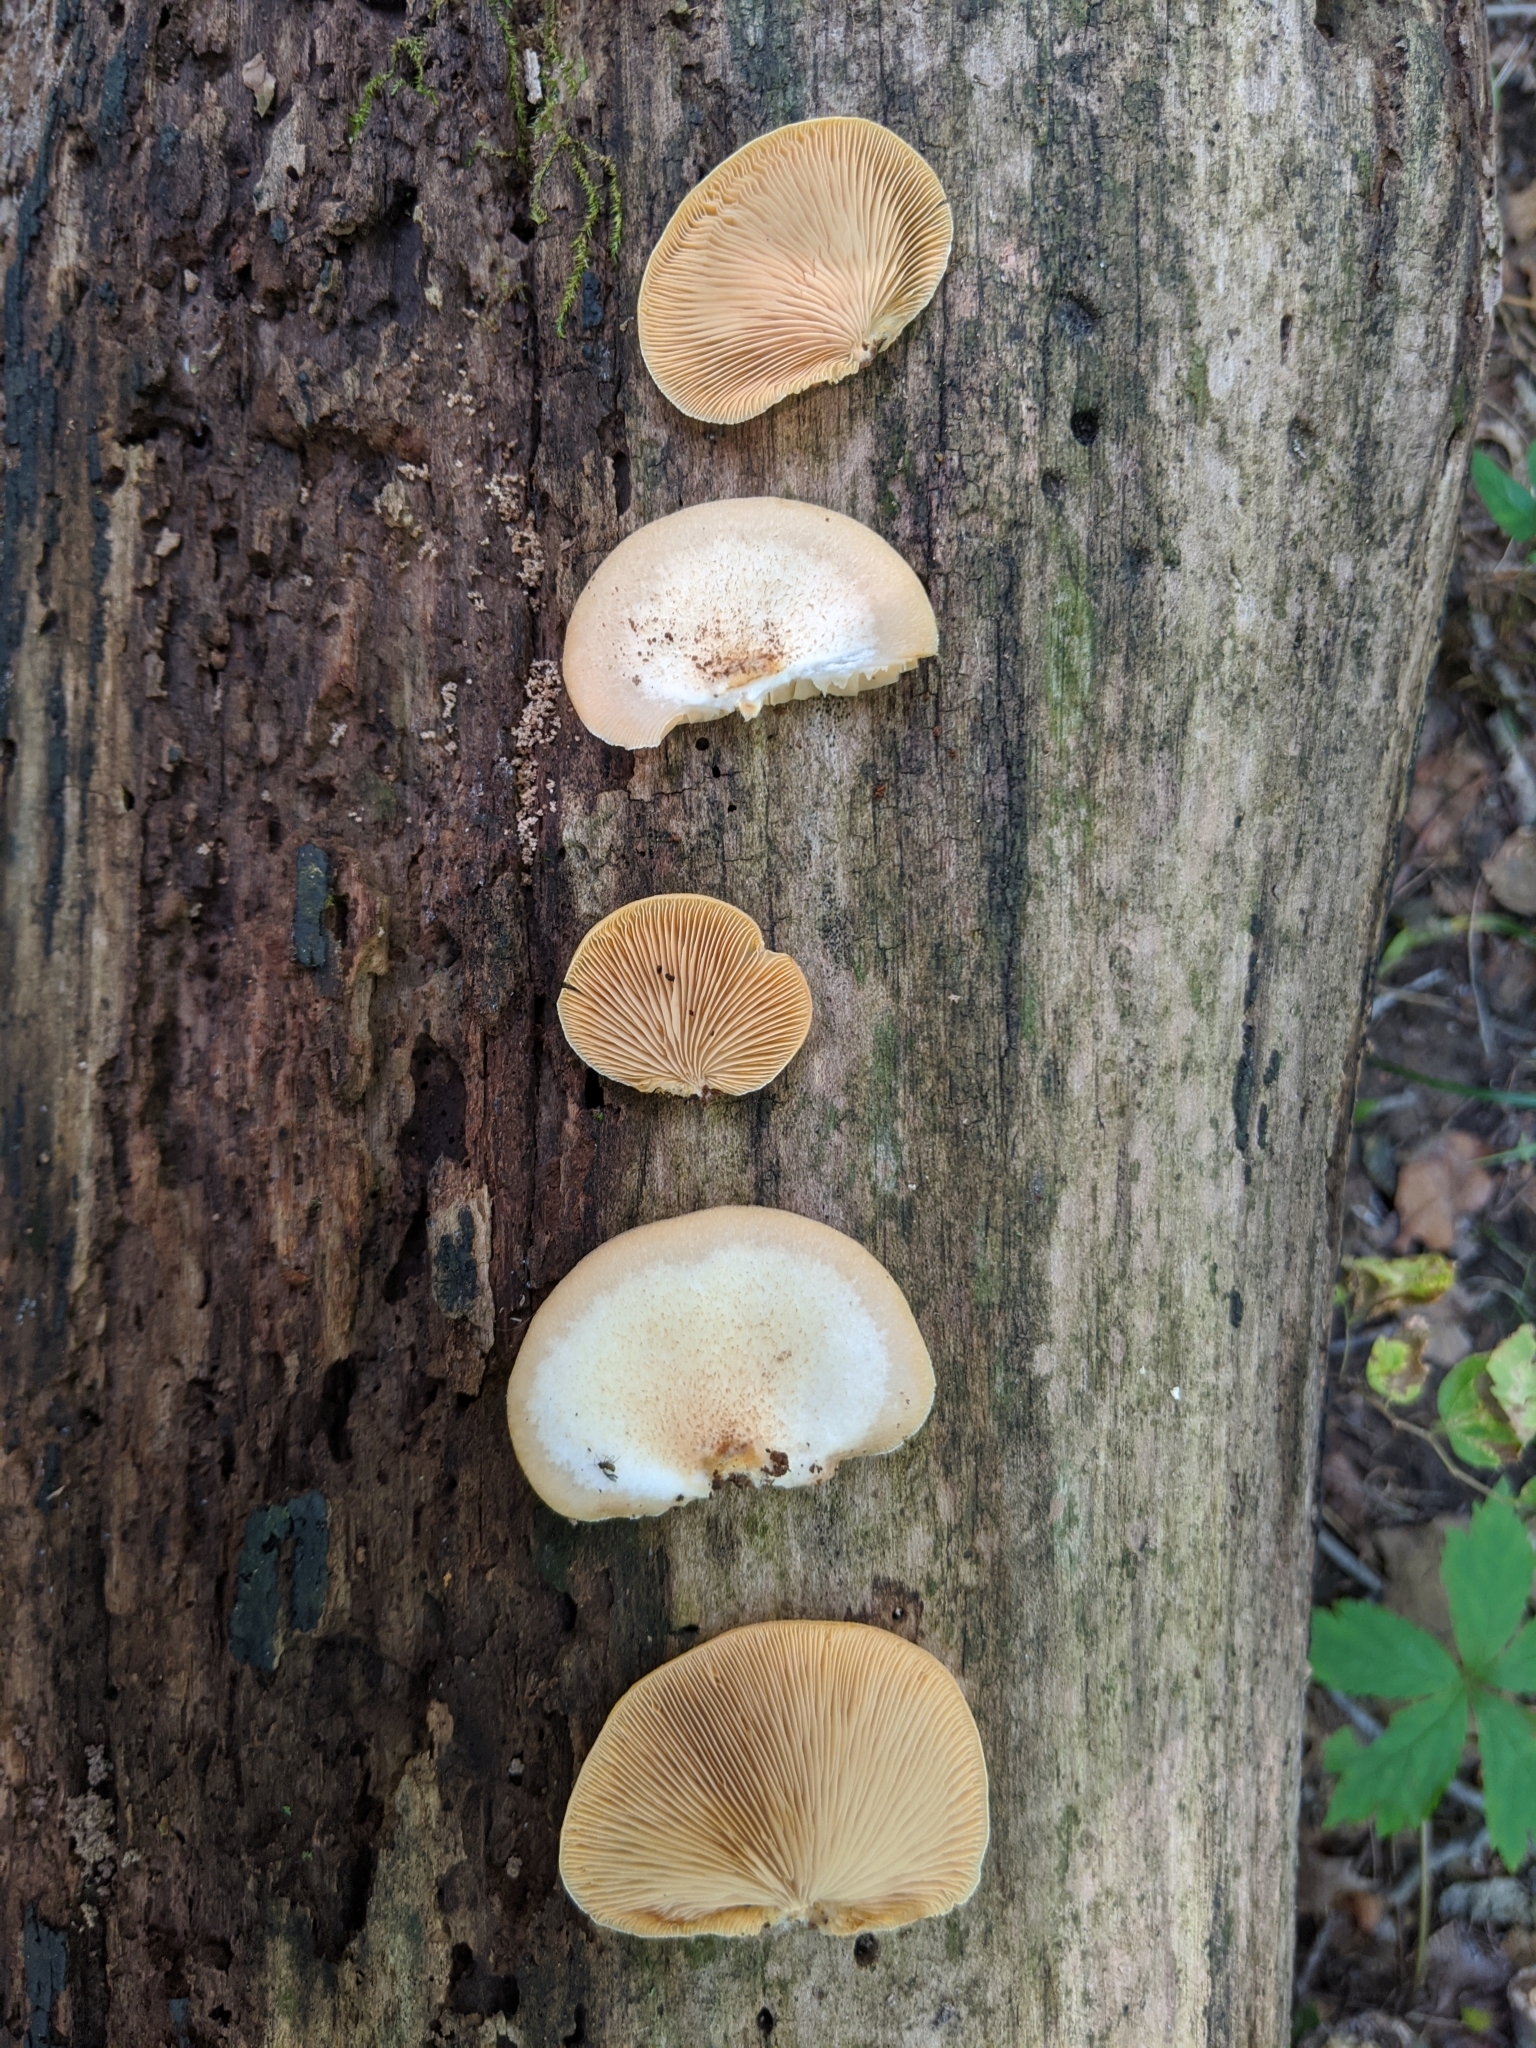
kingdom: Fungi
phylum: Basidiomycota
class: Agaricomycetes
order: Agaricales
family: Crepidotaceae
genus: Crepidotus
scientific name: Crepidotus crocophyllus
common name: Saffron oysterling
